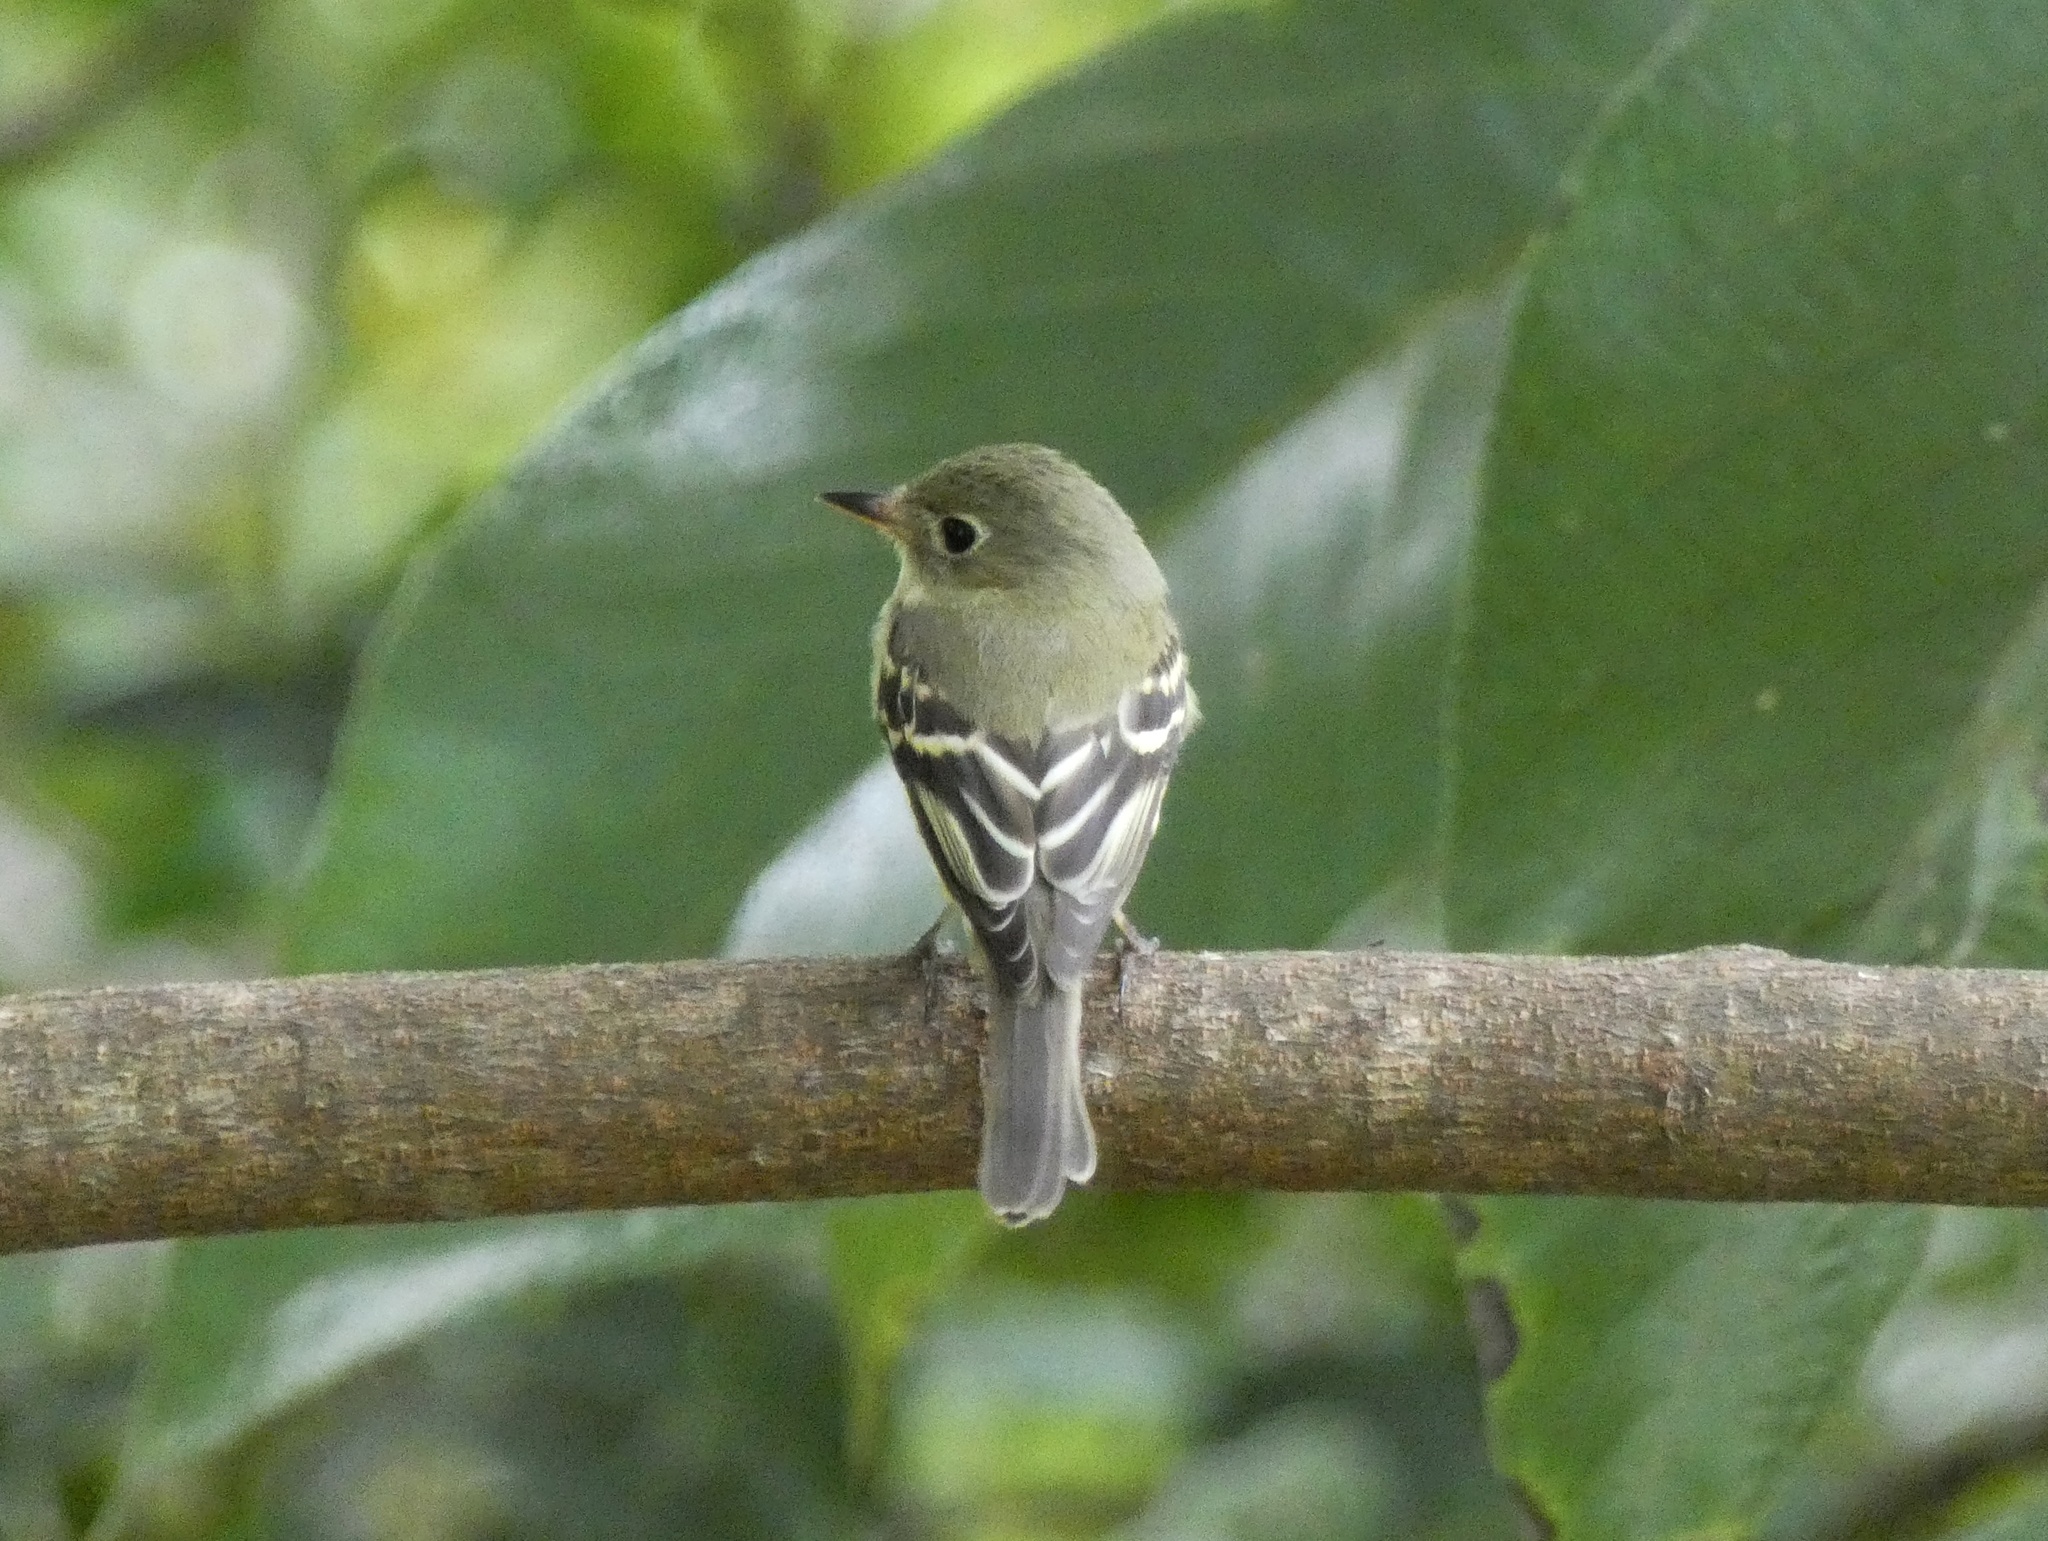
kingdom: Animalia
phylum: Chordata
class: Aves
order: Passeriformes
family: Tyrannidae
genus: Empidonax
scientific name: Empidonax flaviventris
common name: Yellow-bellied flycatcher
